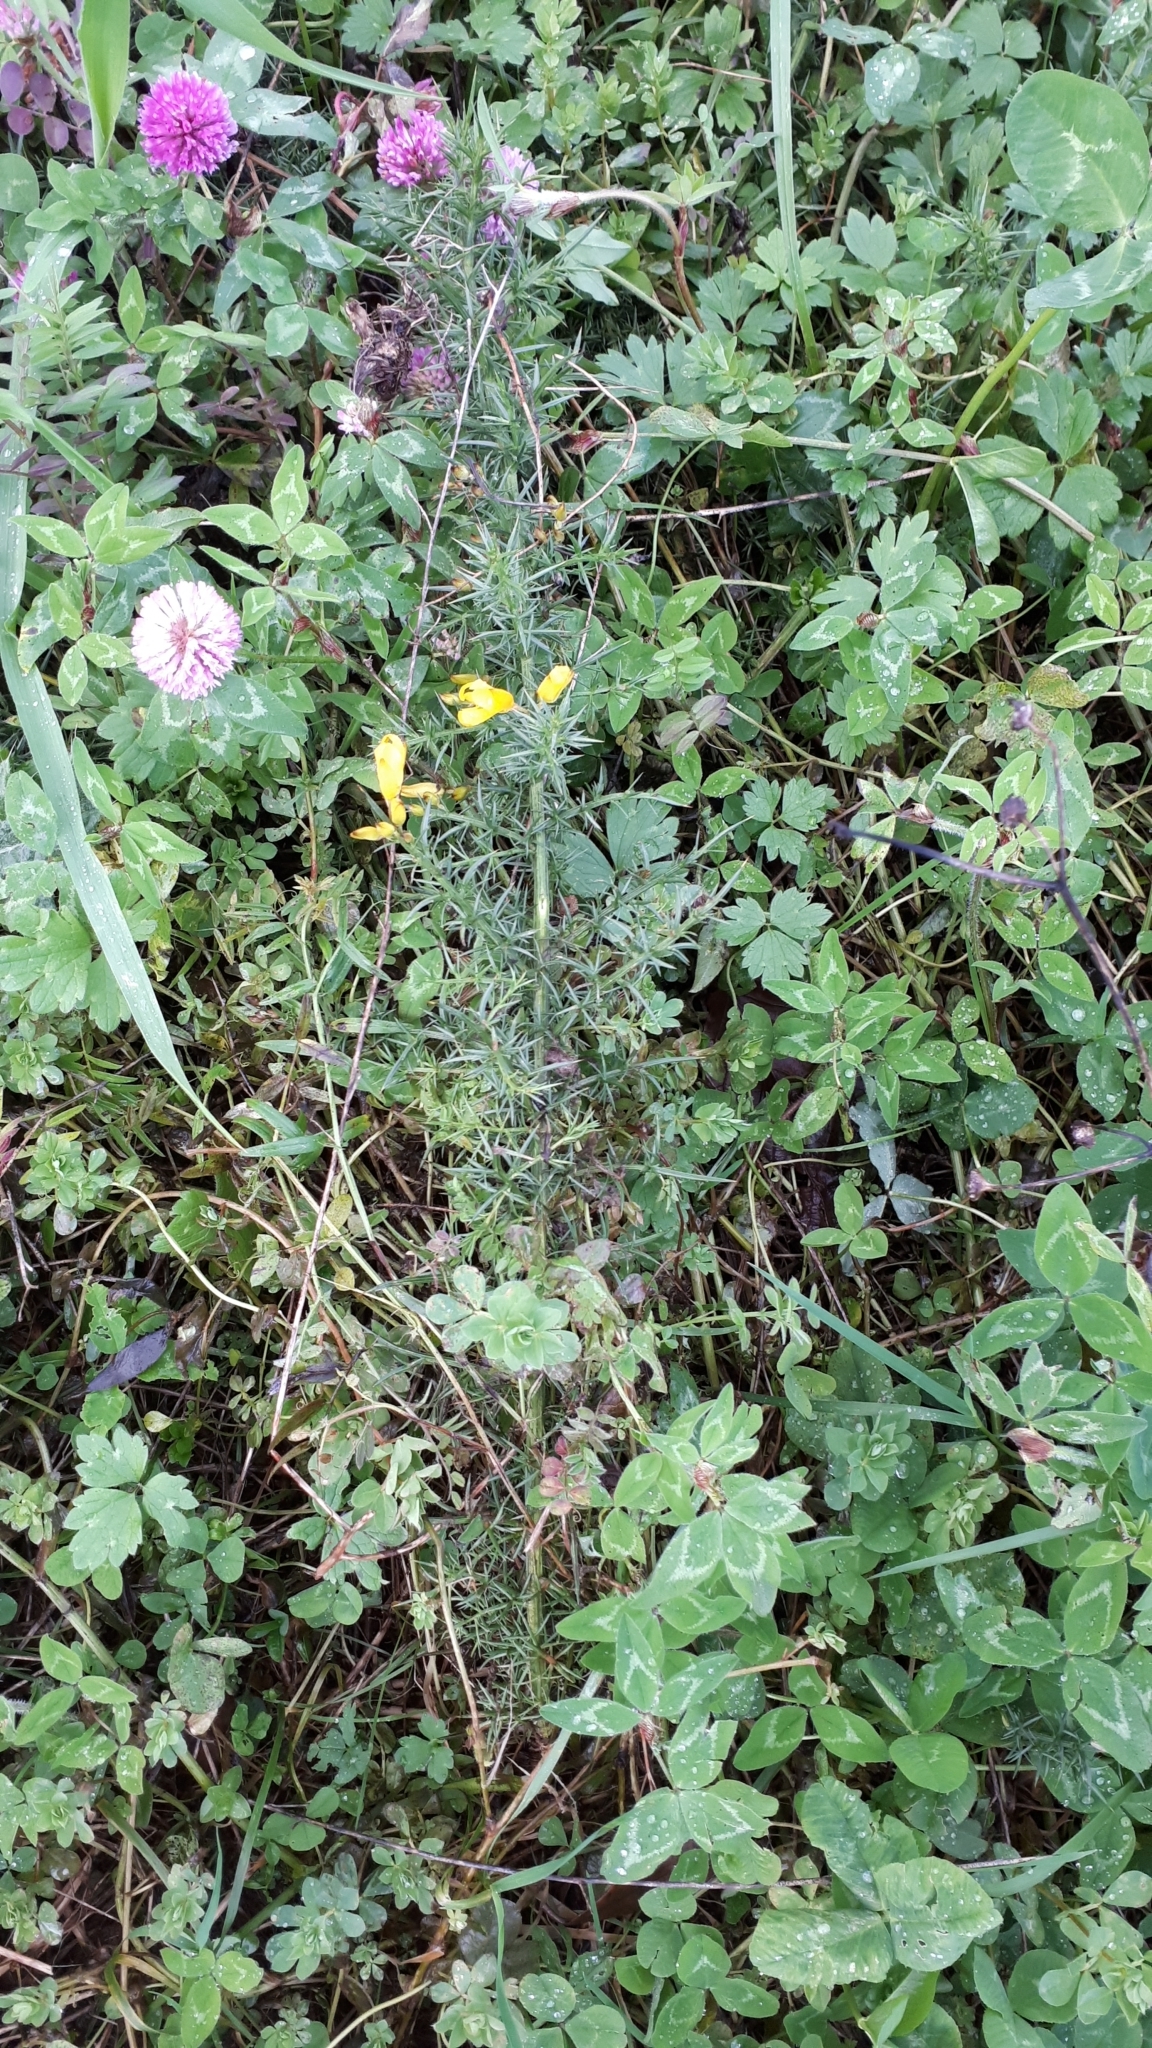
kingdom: Plantae
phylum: Tracheophyta
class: Magnoliopsida
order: Fabales
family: Fabaceae
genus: Ulex
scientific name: Ulex europaeus
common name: Common gorse
